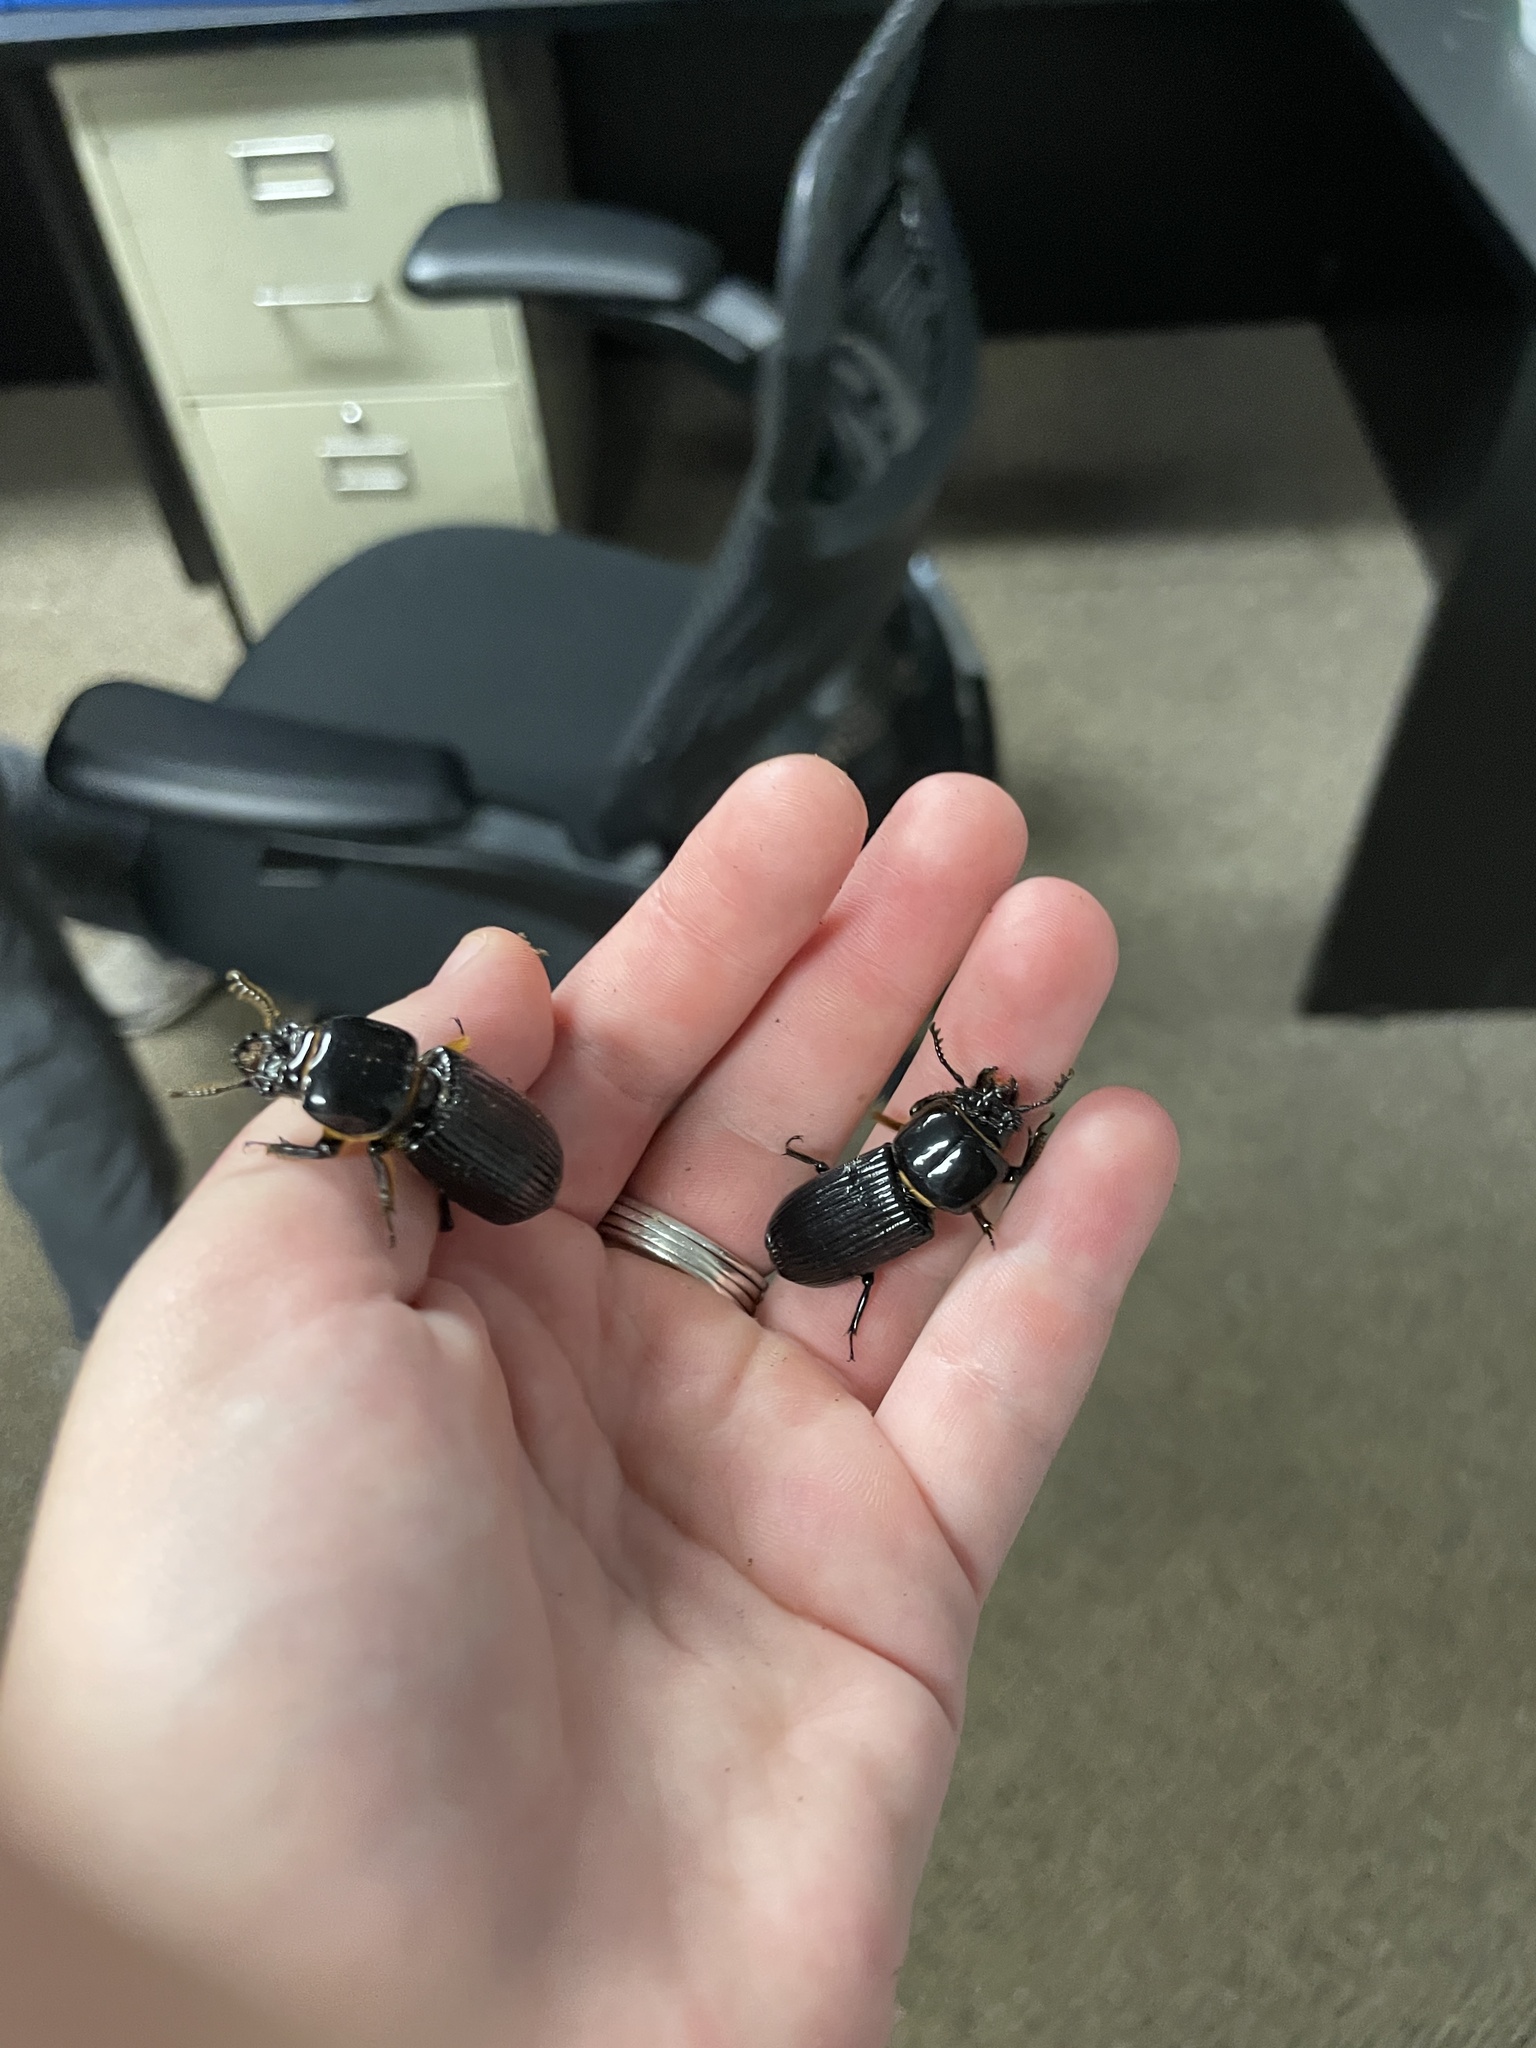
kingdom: Animalia
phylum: Arthropoda
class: Insecta
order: Coleoptera
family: Passalidae
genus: Odontotaenius
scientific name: Odontotaenius disjunctus
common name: Patent leather beetle
